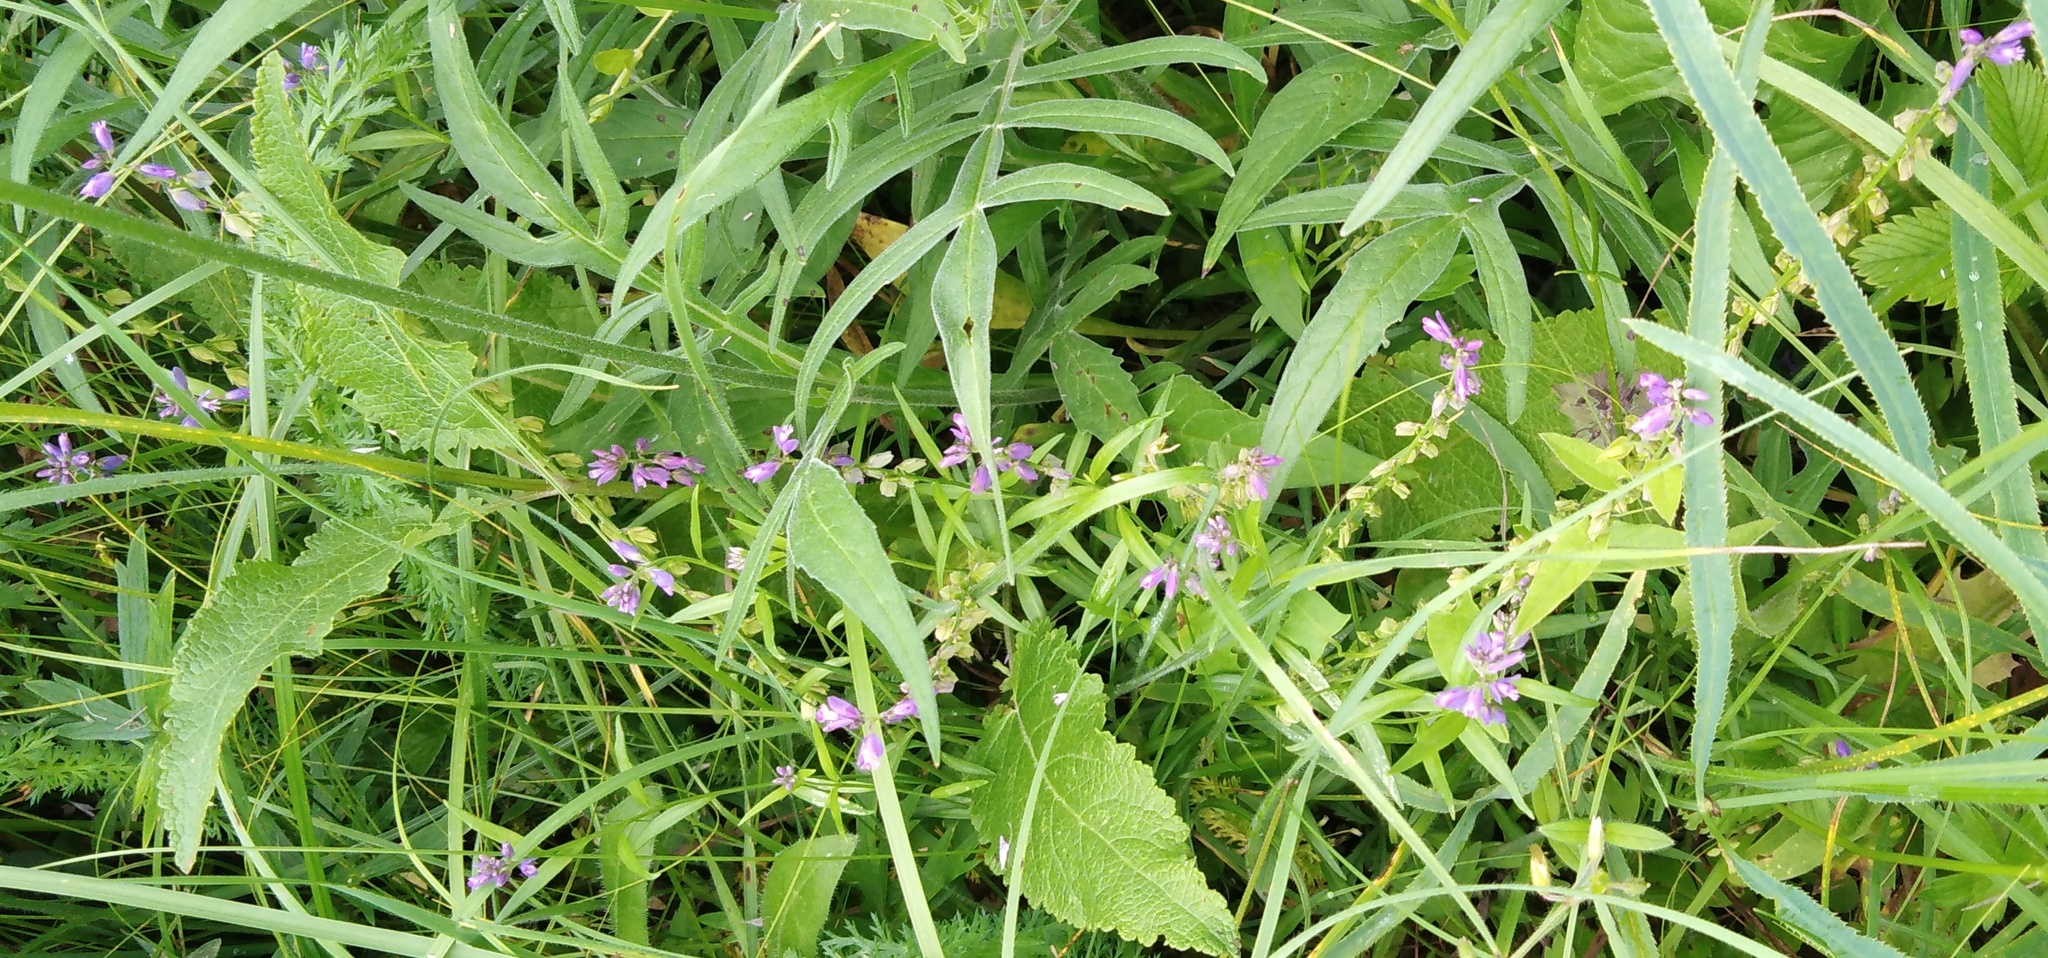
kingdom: Plantae
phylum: Tracheophyta
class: Magnoliopsida
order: Fabales
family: Polygalaceae
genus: Polygala
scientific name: Polygala comosa
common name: Tufted milkwort
